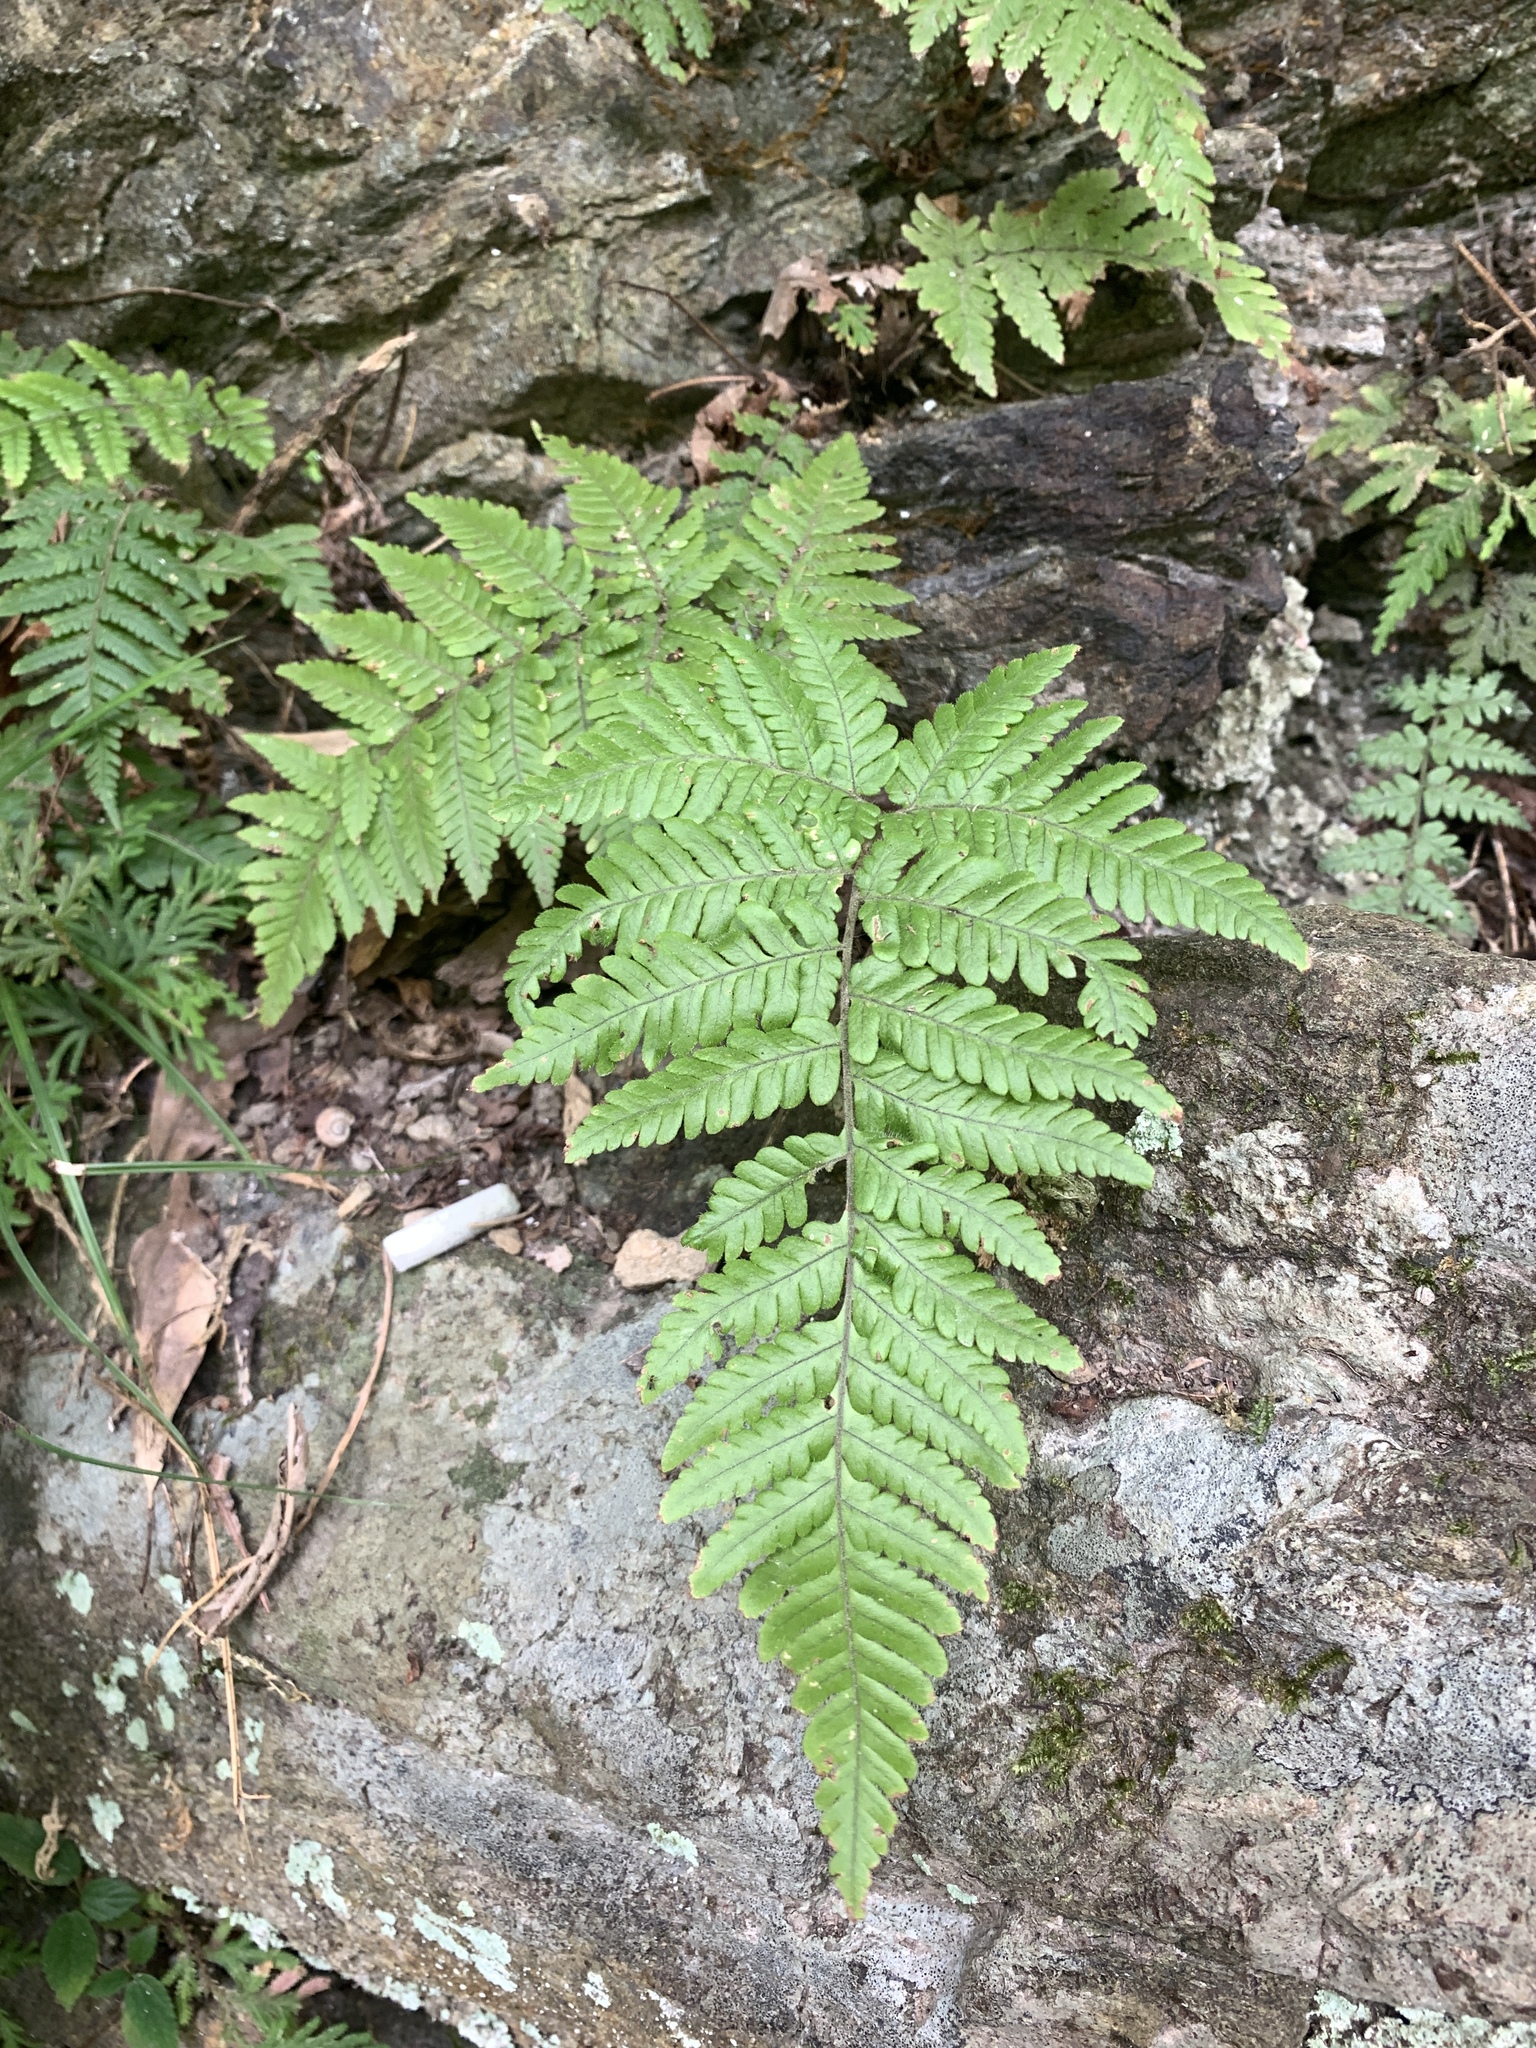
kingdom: Plantae
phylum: Tracheophyta
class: Polypodiopsida
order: Polypodiales
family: Dryopteridaceae
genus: Ctenitis
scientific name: Ctenitis eatonii
